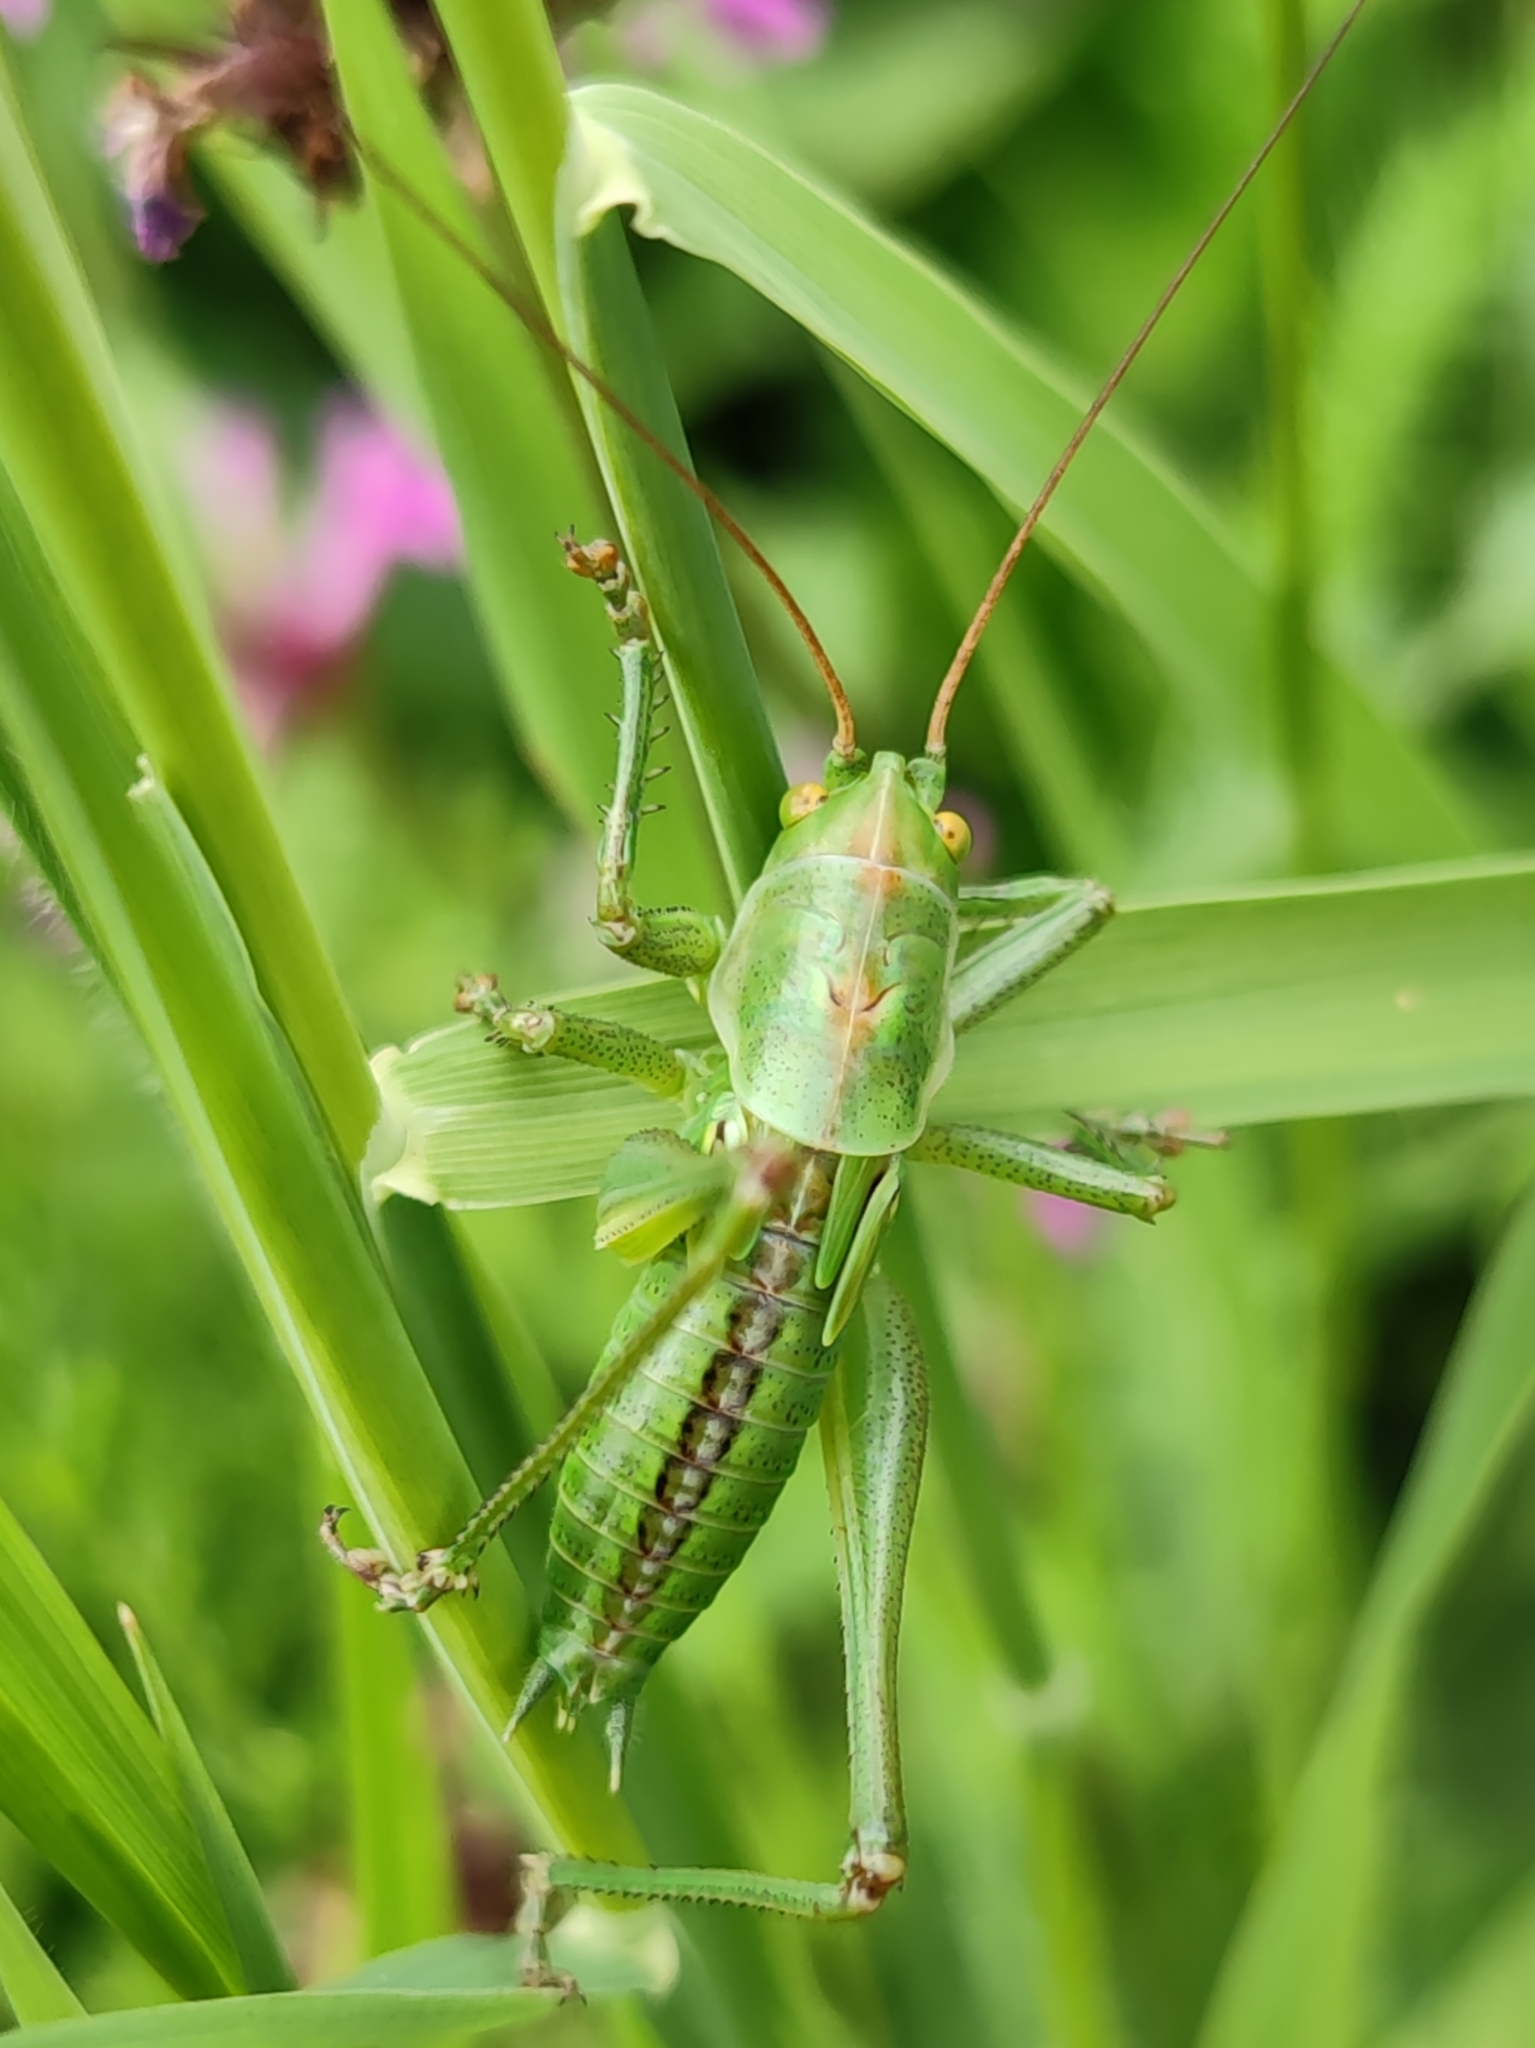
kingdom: Animalia
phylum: Arthropoda
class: Insecta
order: Orthoptera
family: Tettigoniidae
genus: Tettigonia
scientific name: Tettigonia viridissima
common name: Great green bush-cricket
